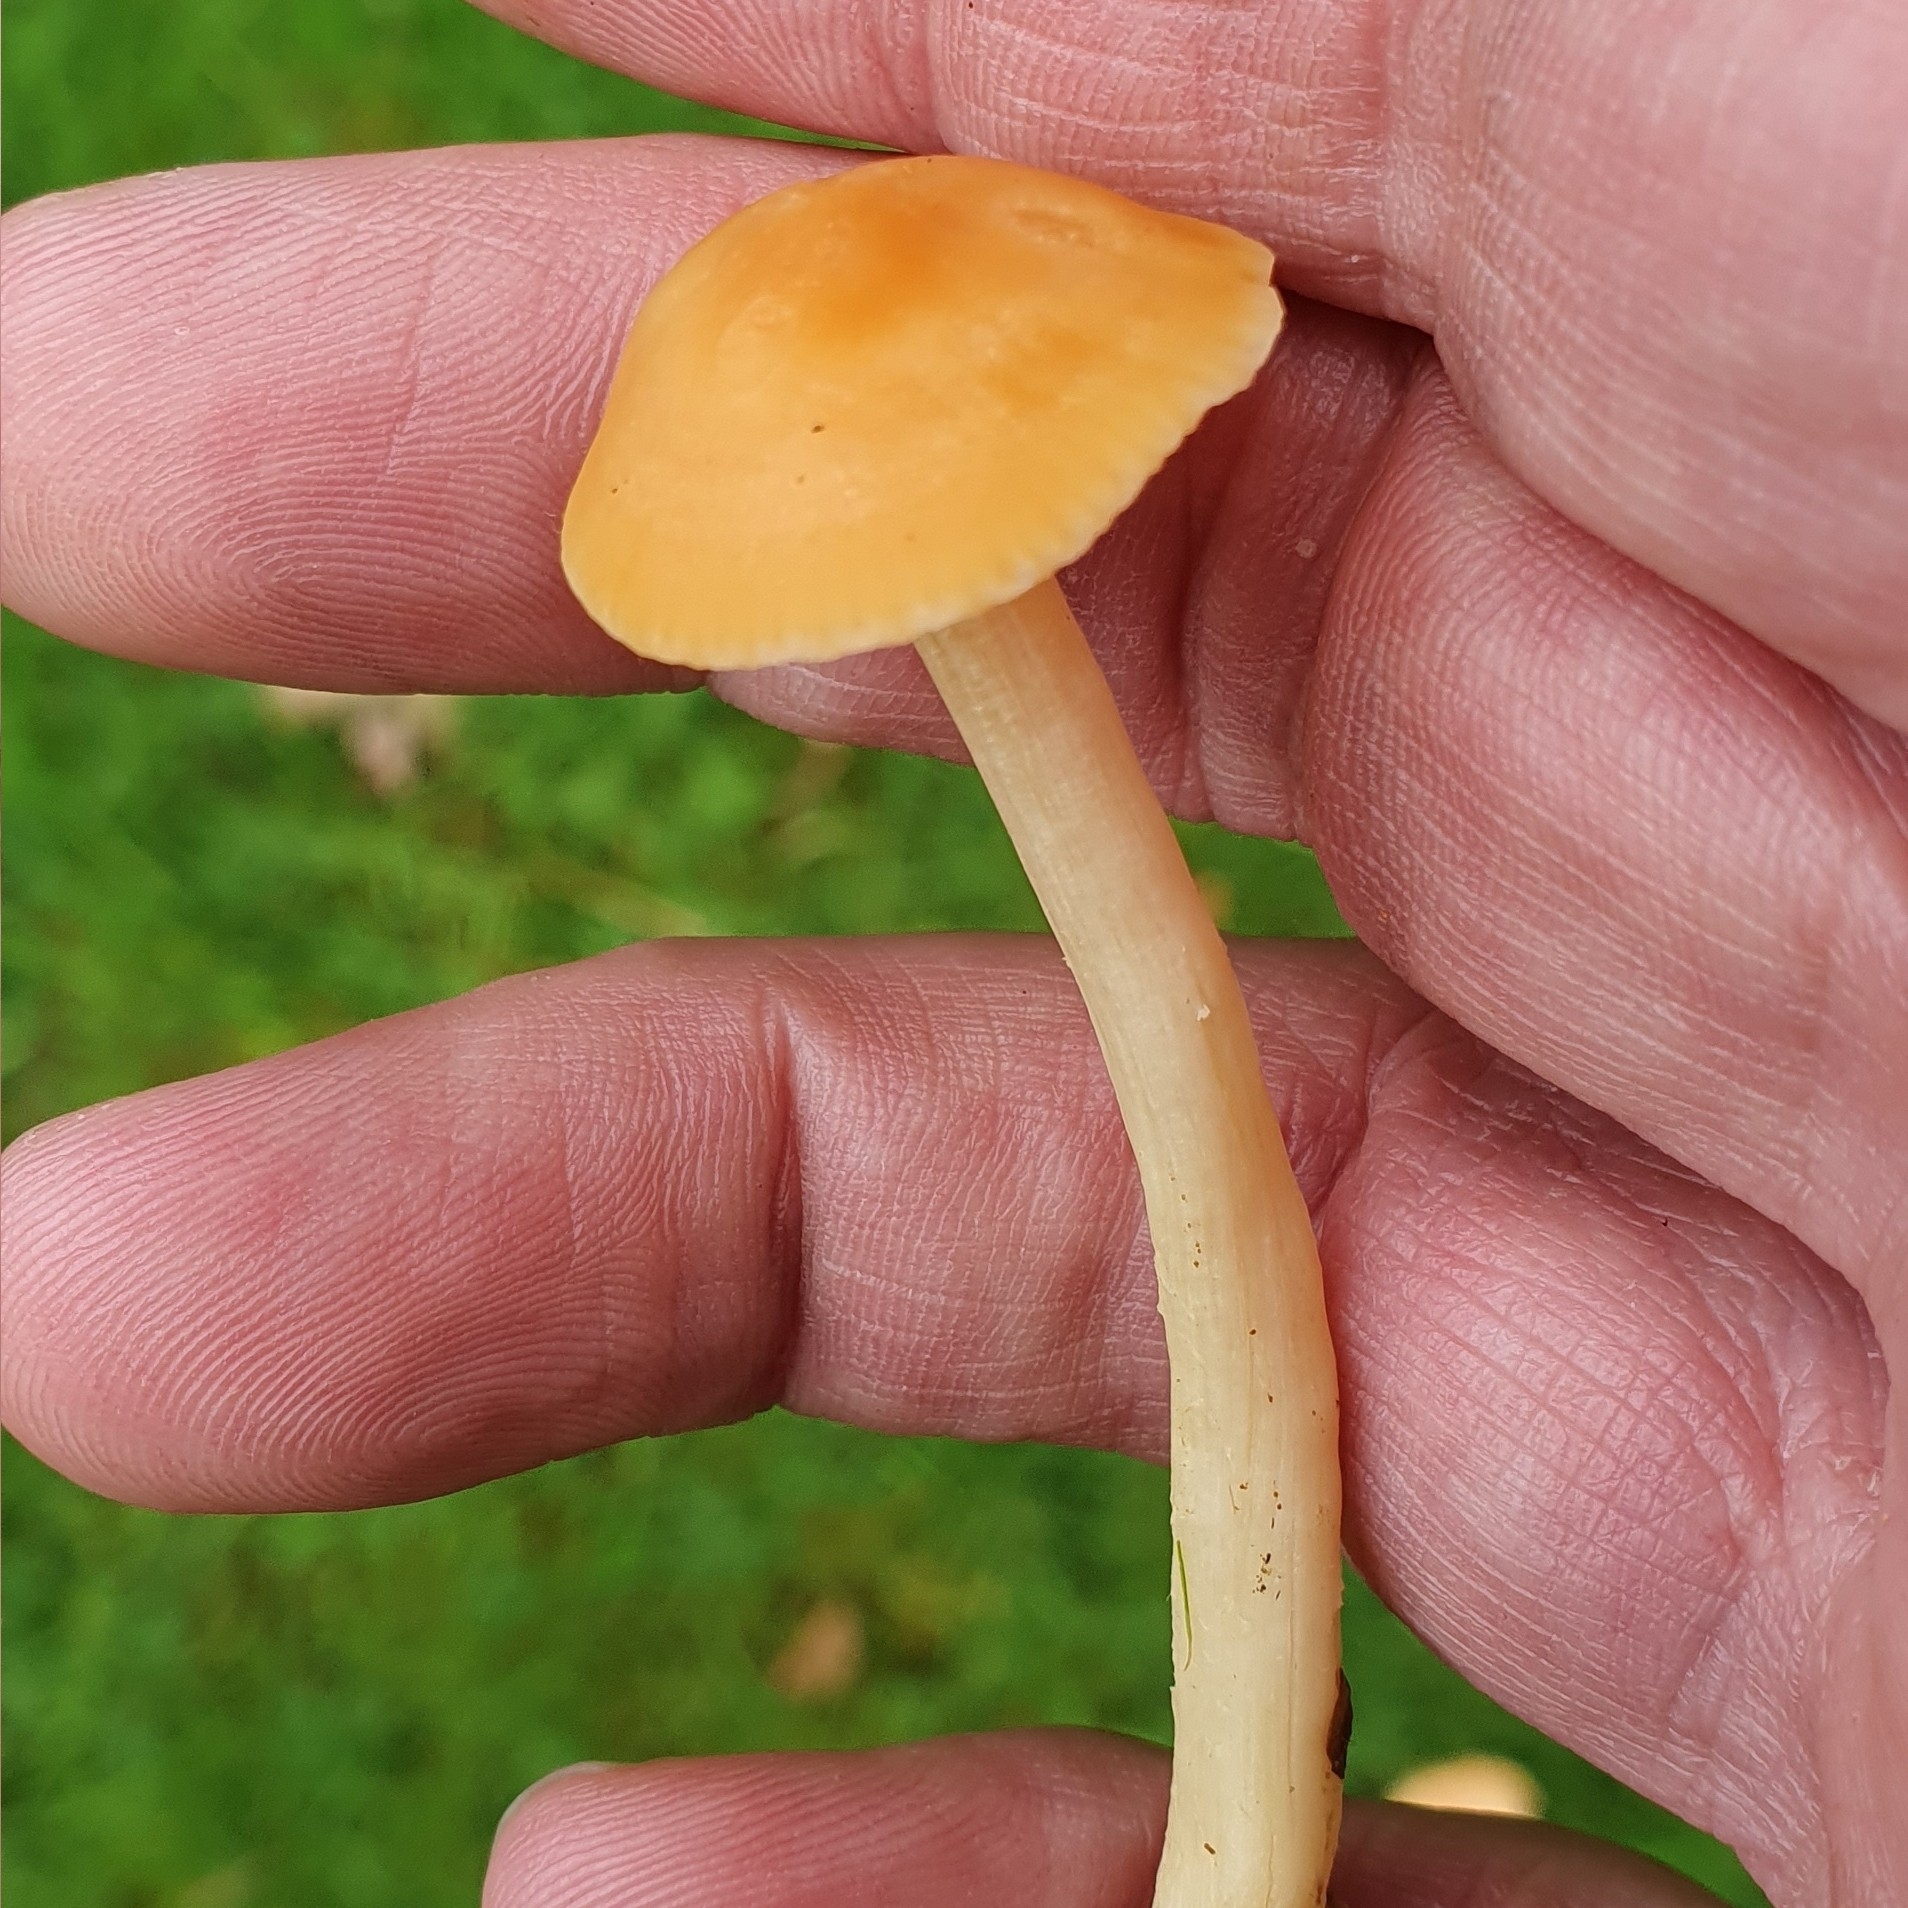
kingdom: Fungi
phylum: Basidiomycota
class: Agaricomycetes
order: Agaricales
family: Hygrophoraceae
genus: Cuphophyllus
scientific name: Cuphophyllus pratensis
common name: Meadow waxcap
